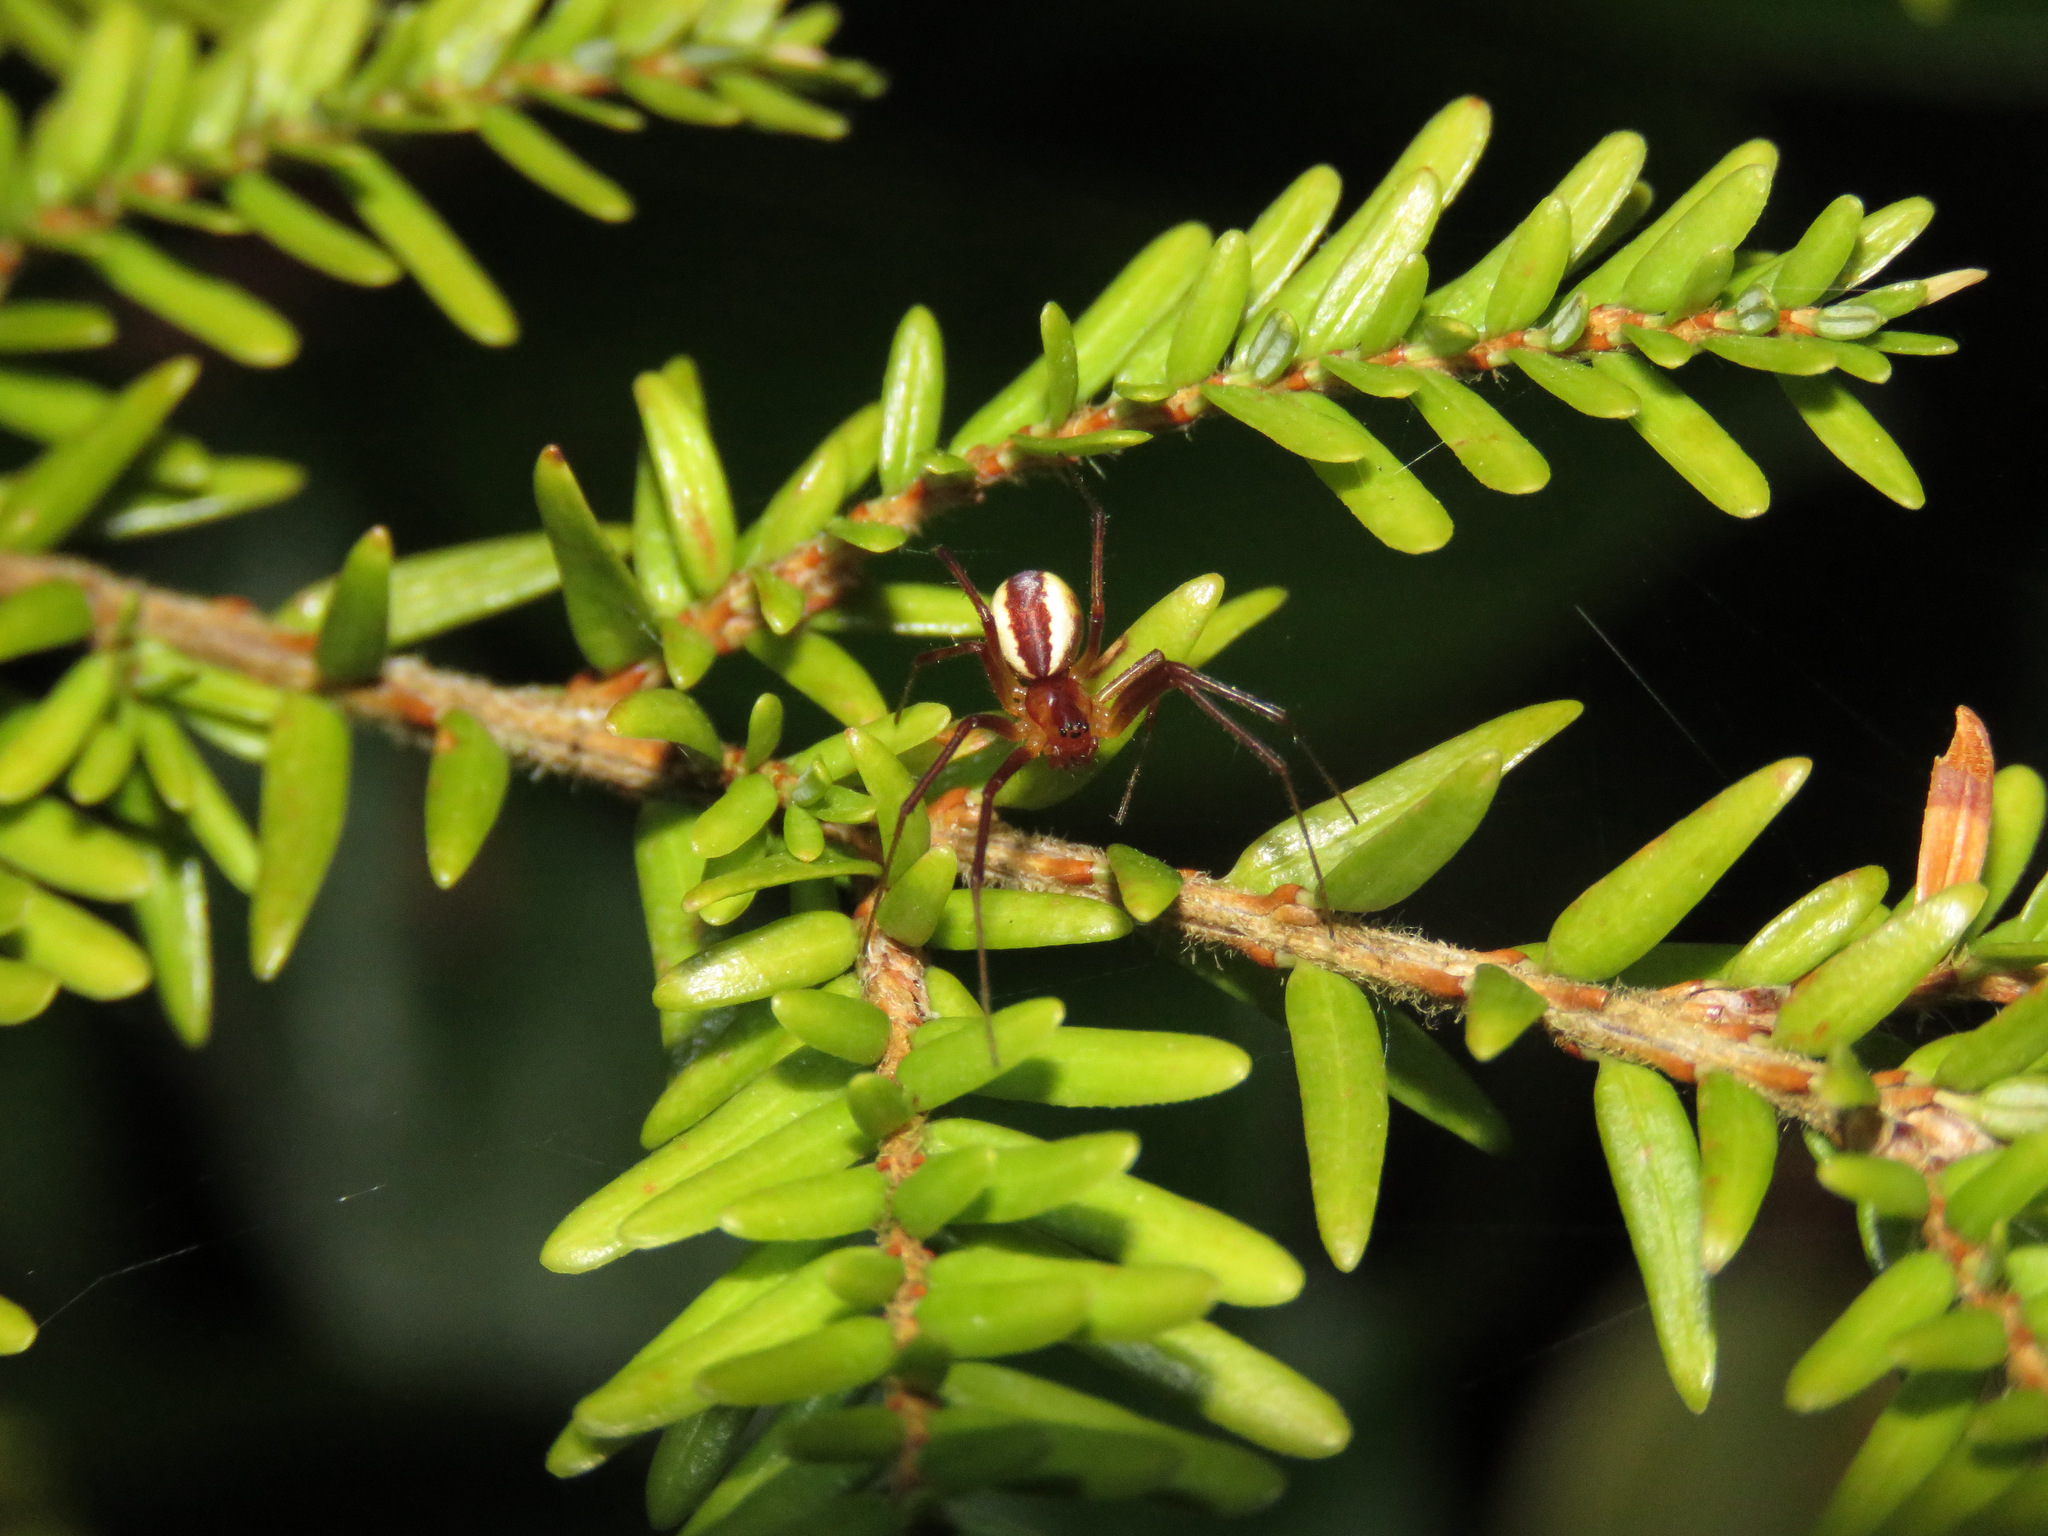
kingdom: Animalia
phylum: Arthropoda
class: Arachnida
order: Araneae
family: Linyphiidae
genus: Pityohyphantes
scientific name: Pityohyphantes rubrofasciatus
